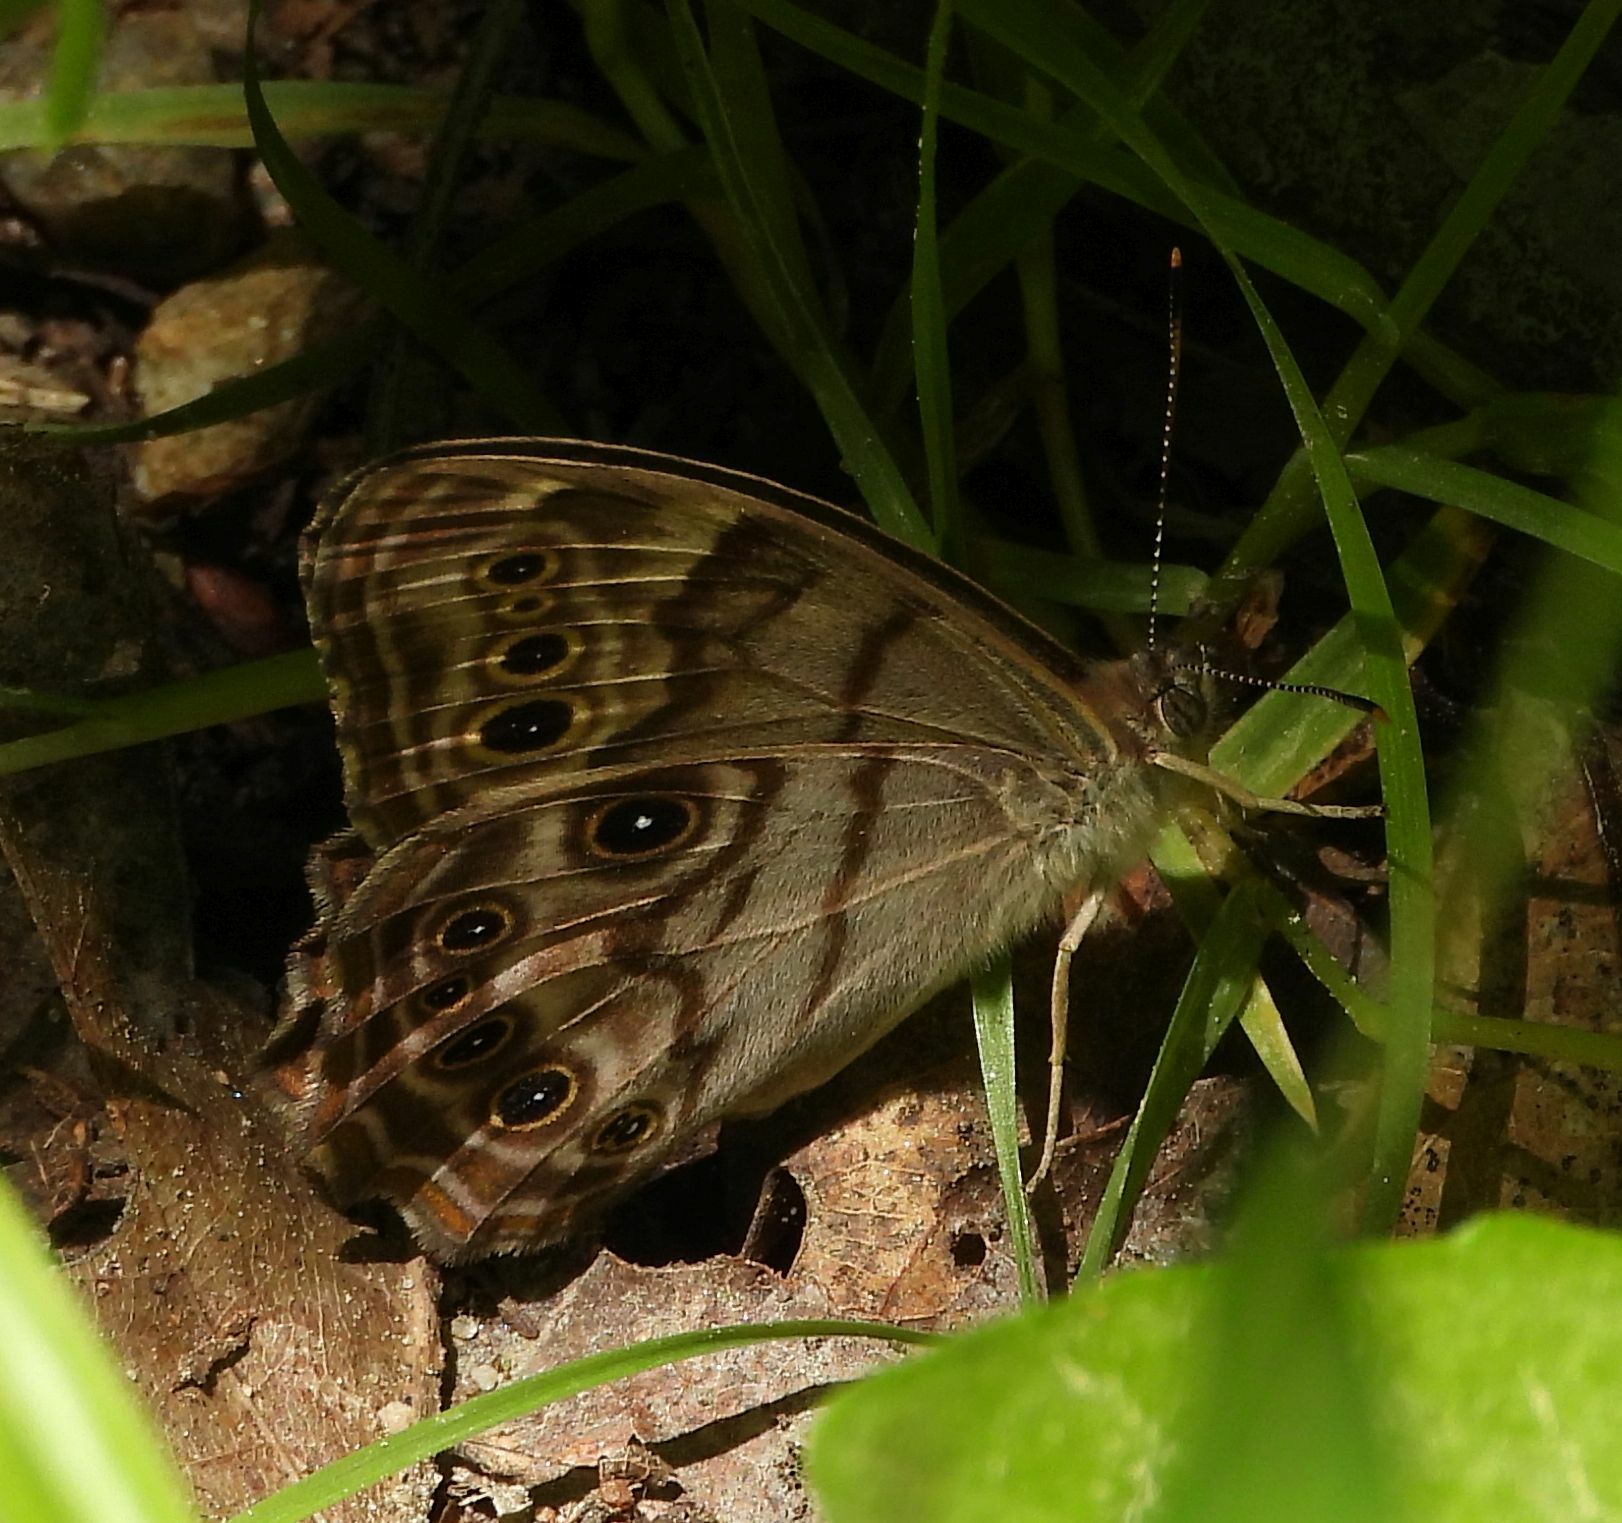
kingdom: Animalia
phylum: Arthropoda
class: Insecta
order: Lepidoptera
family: Nymphalidae
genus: Lethe
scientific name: Lethe anthedon
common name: Northern pearly-eye
